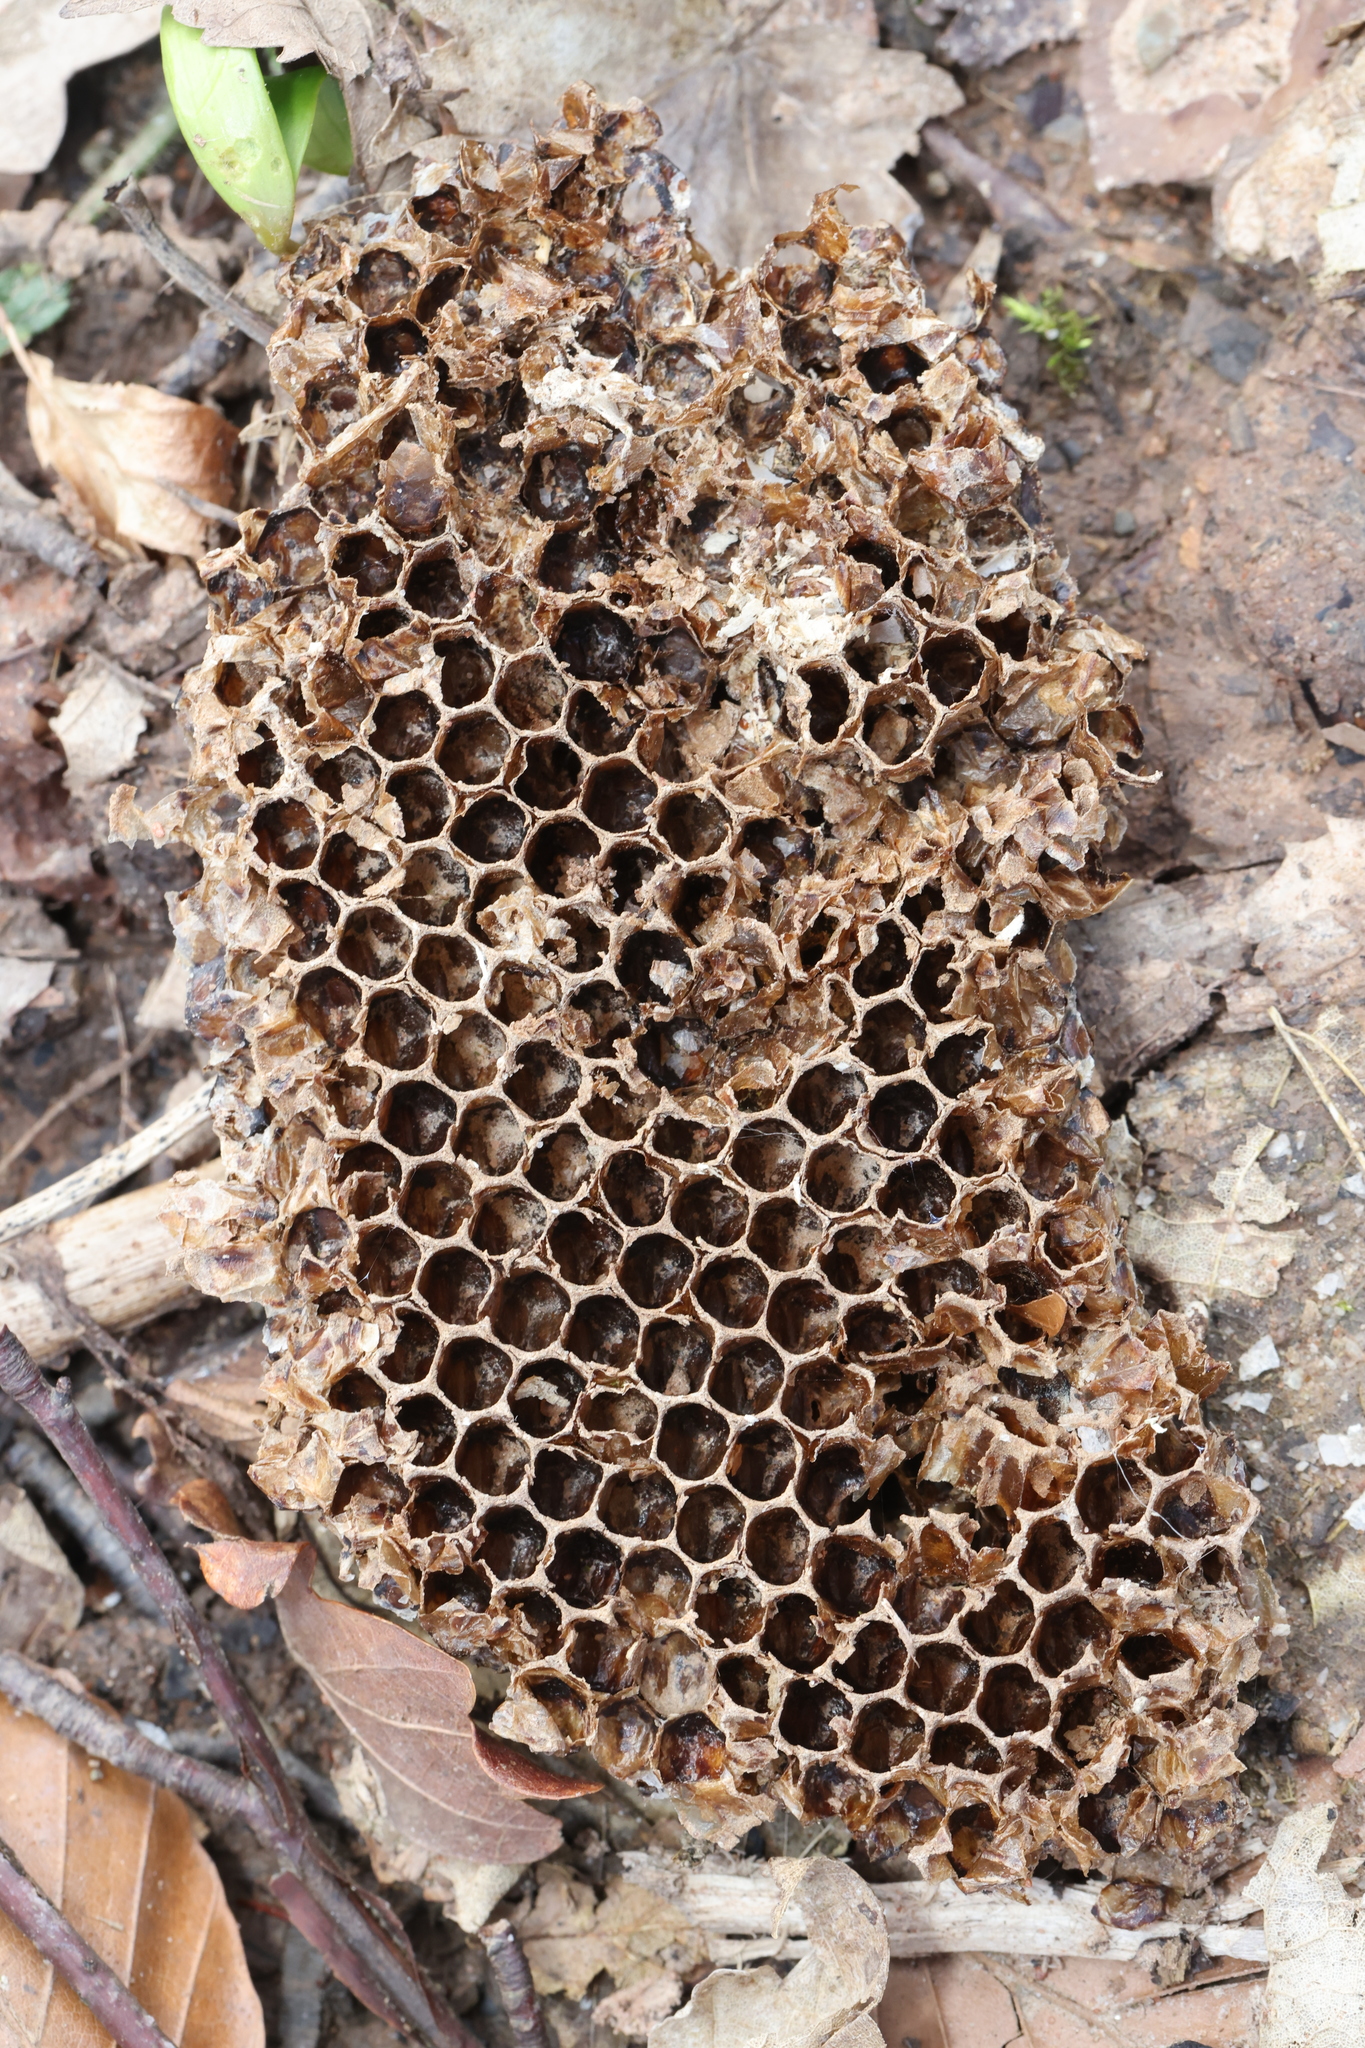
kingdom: Animalia
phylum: Arthropoda
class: Insecta
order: Hymenoptera
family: Apidae
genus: Apis
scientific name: Apis mellifera
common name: Honey bee
